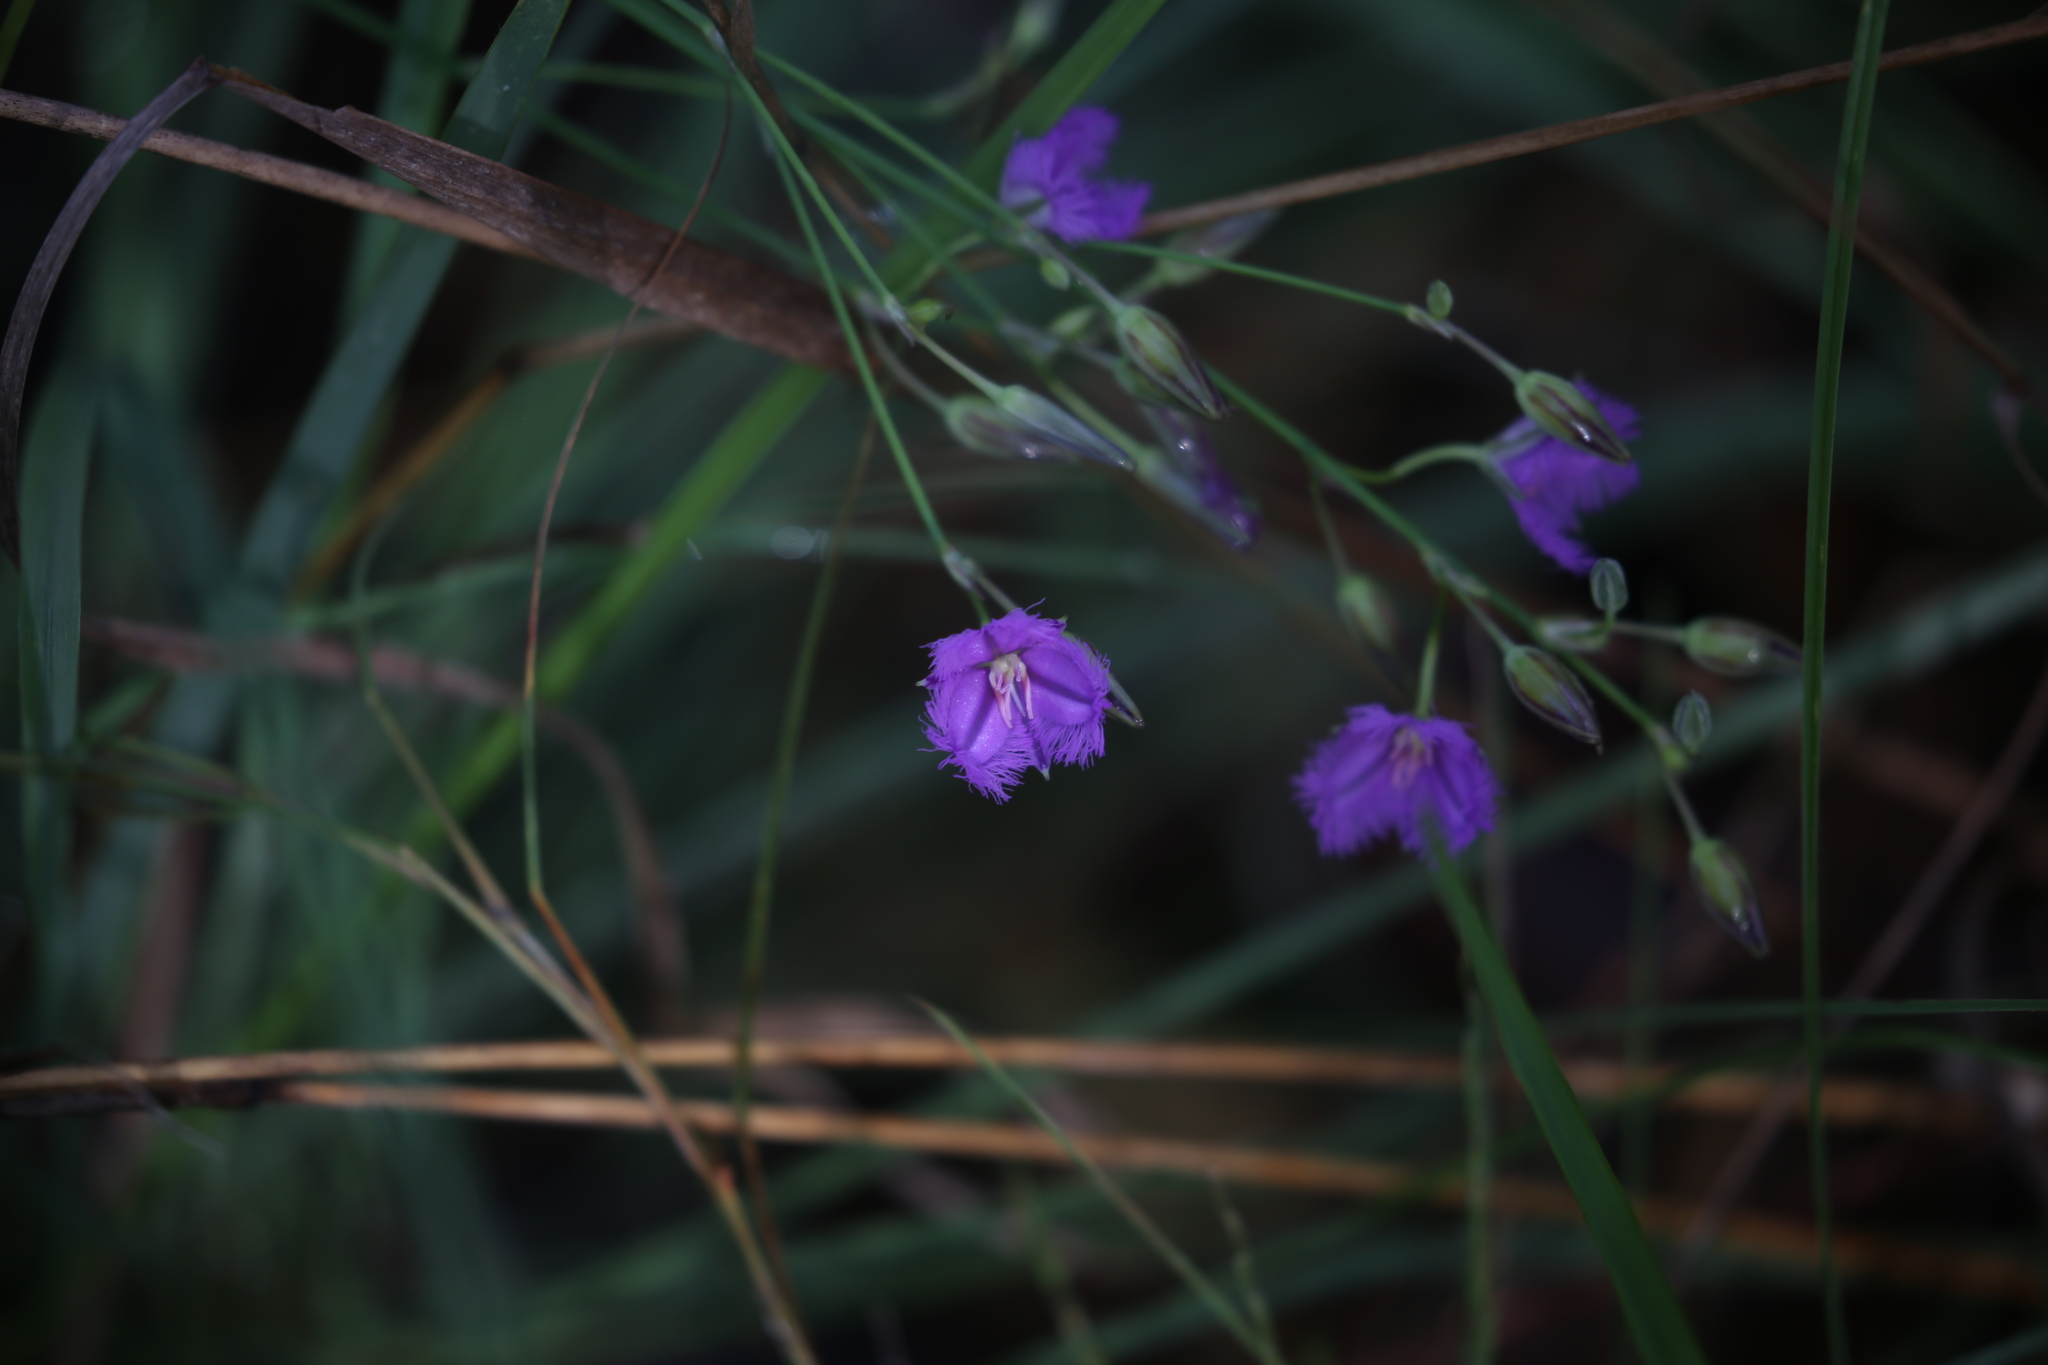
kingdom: Plantae
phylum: Tracheophyta
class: Liliopsida
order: Asparagales
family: Asparagaceae
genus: Thysanotus
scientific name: Thysanotus tuberosus
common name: Common fringed-lily
